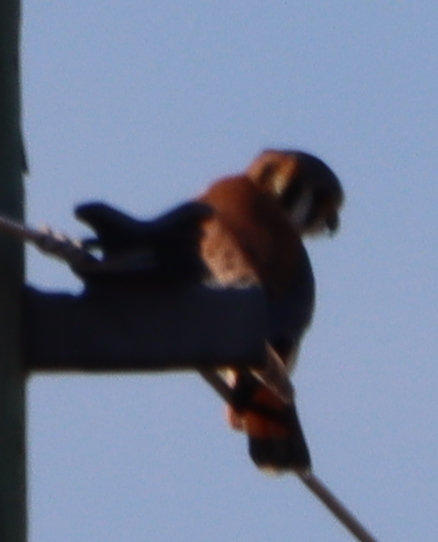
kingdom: Animalia
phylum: Chordata
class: Aves
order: Falconiformes
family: Falconidae
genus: Falco
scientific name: Falco sparverius
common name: American kestrel
